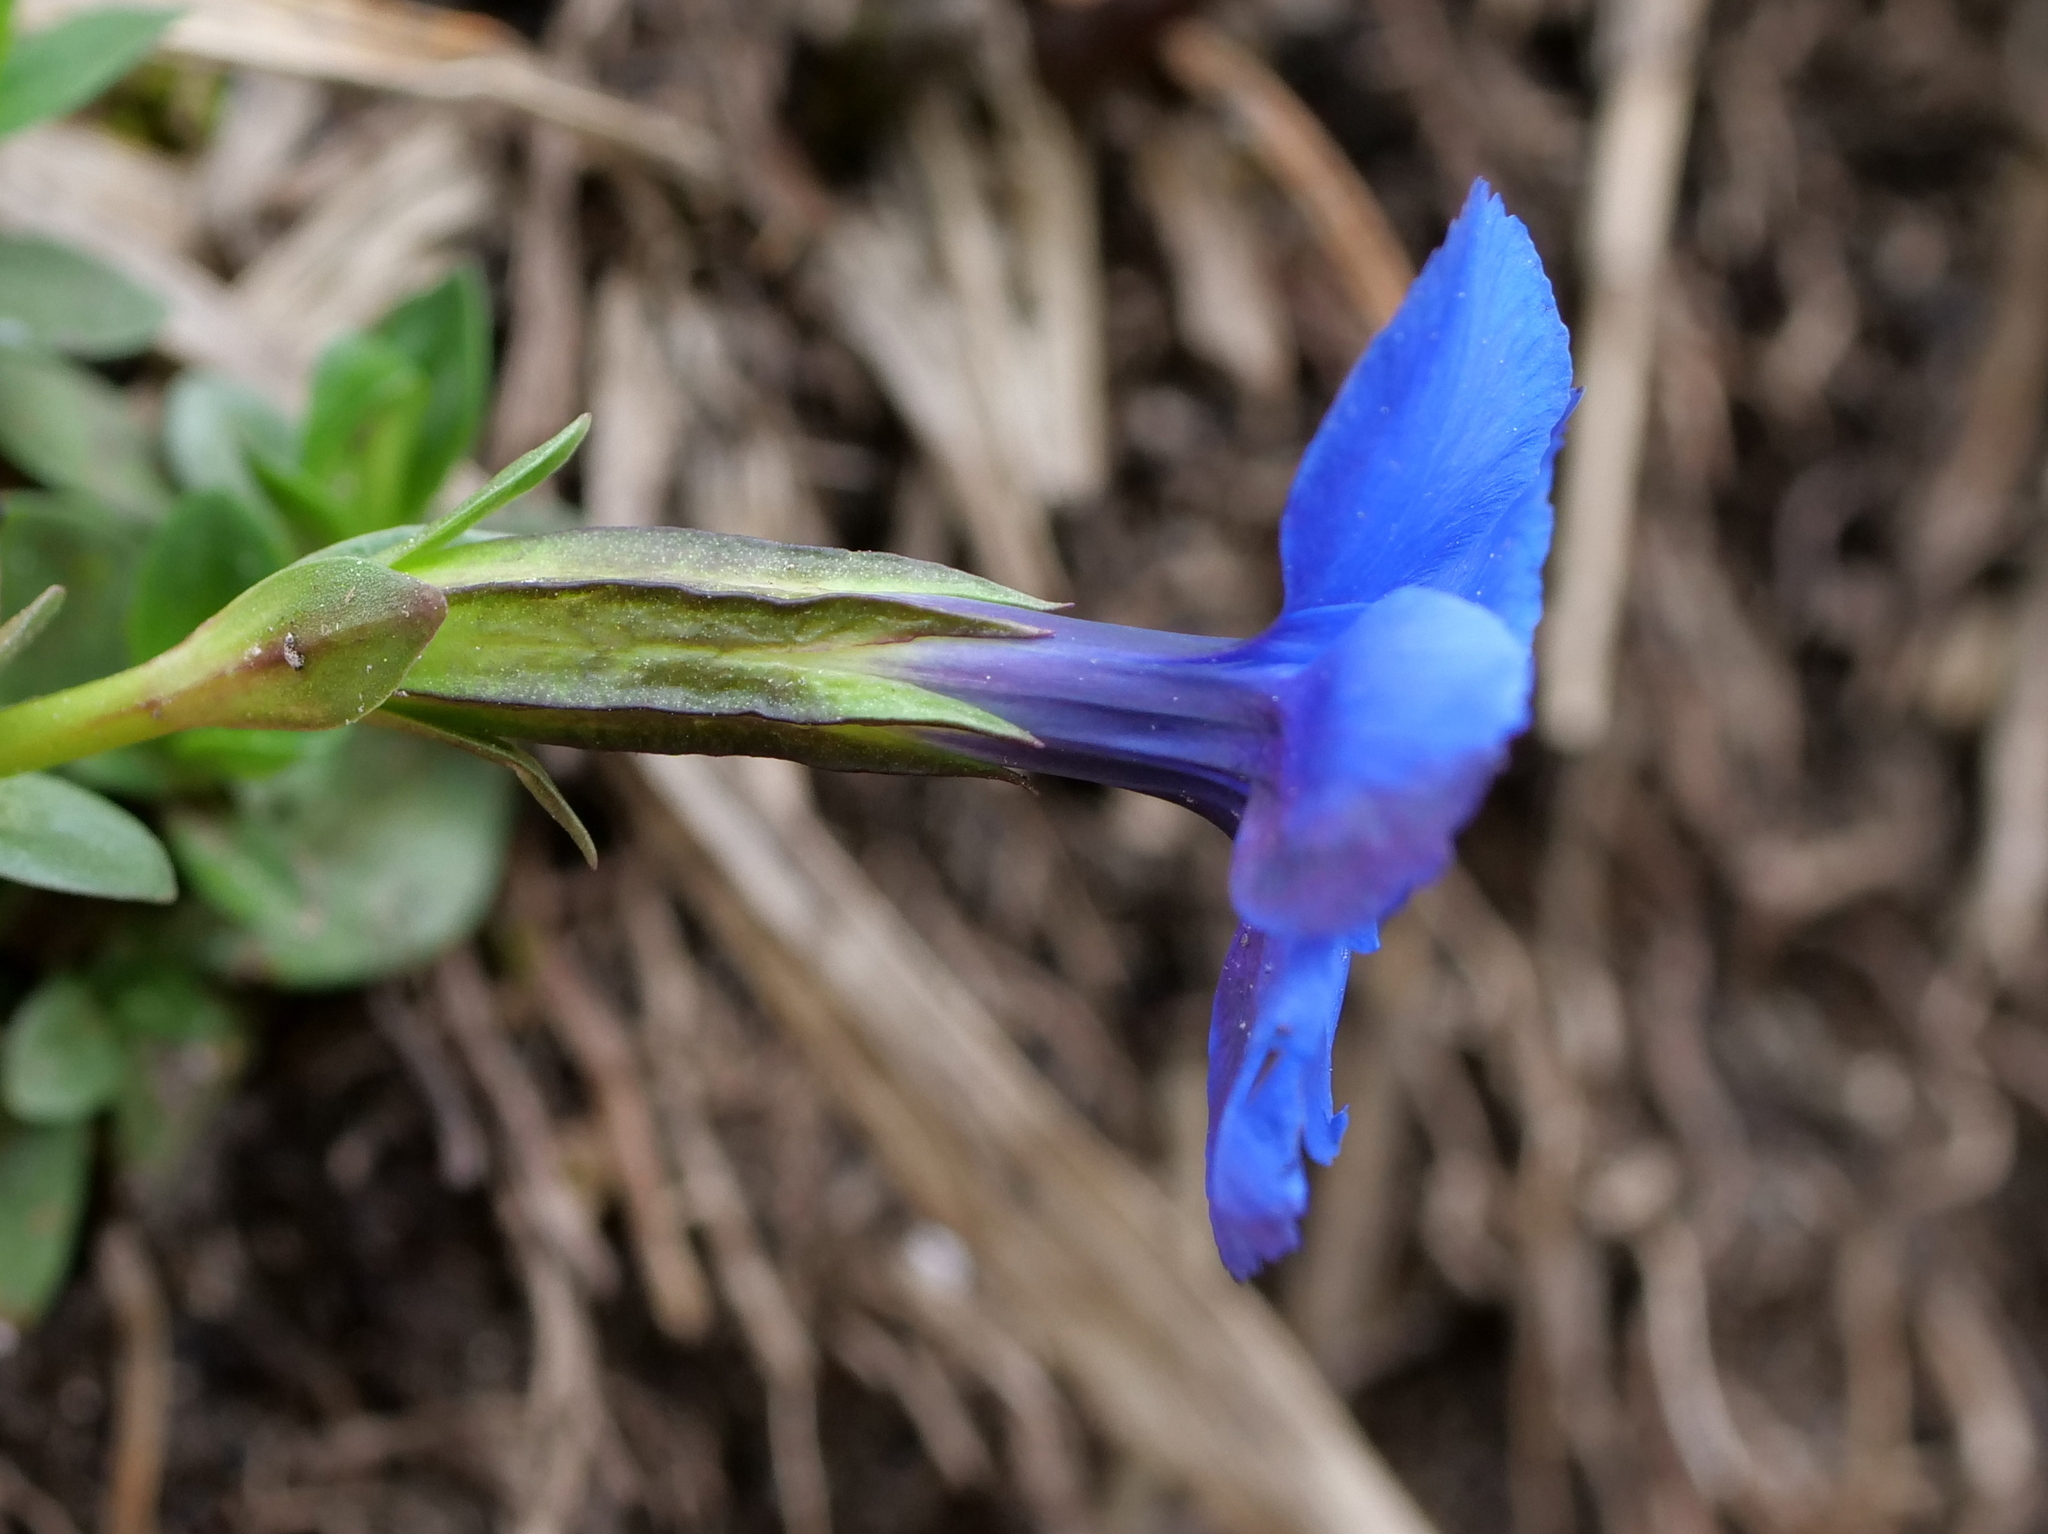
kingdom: Plantae
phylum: Tracheophyta
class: Magnoliopsida
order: Gentianales
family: Gentianaceae
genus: Gentiana
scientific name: Gentiana verna
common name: Spring gentian
